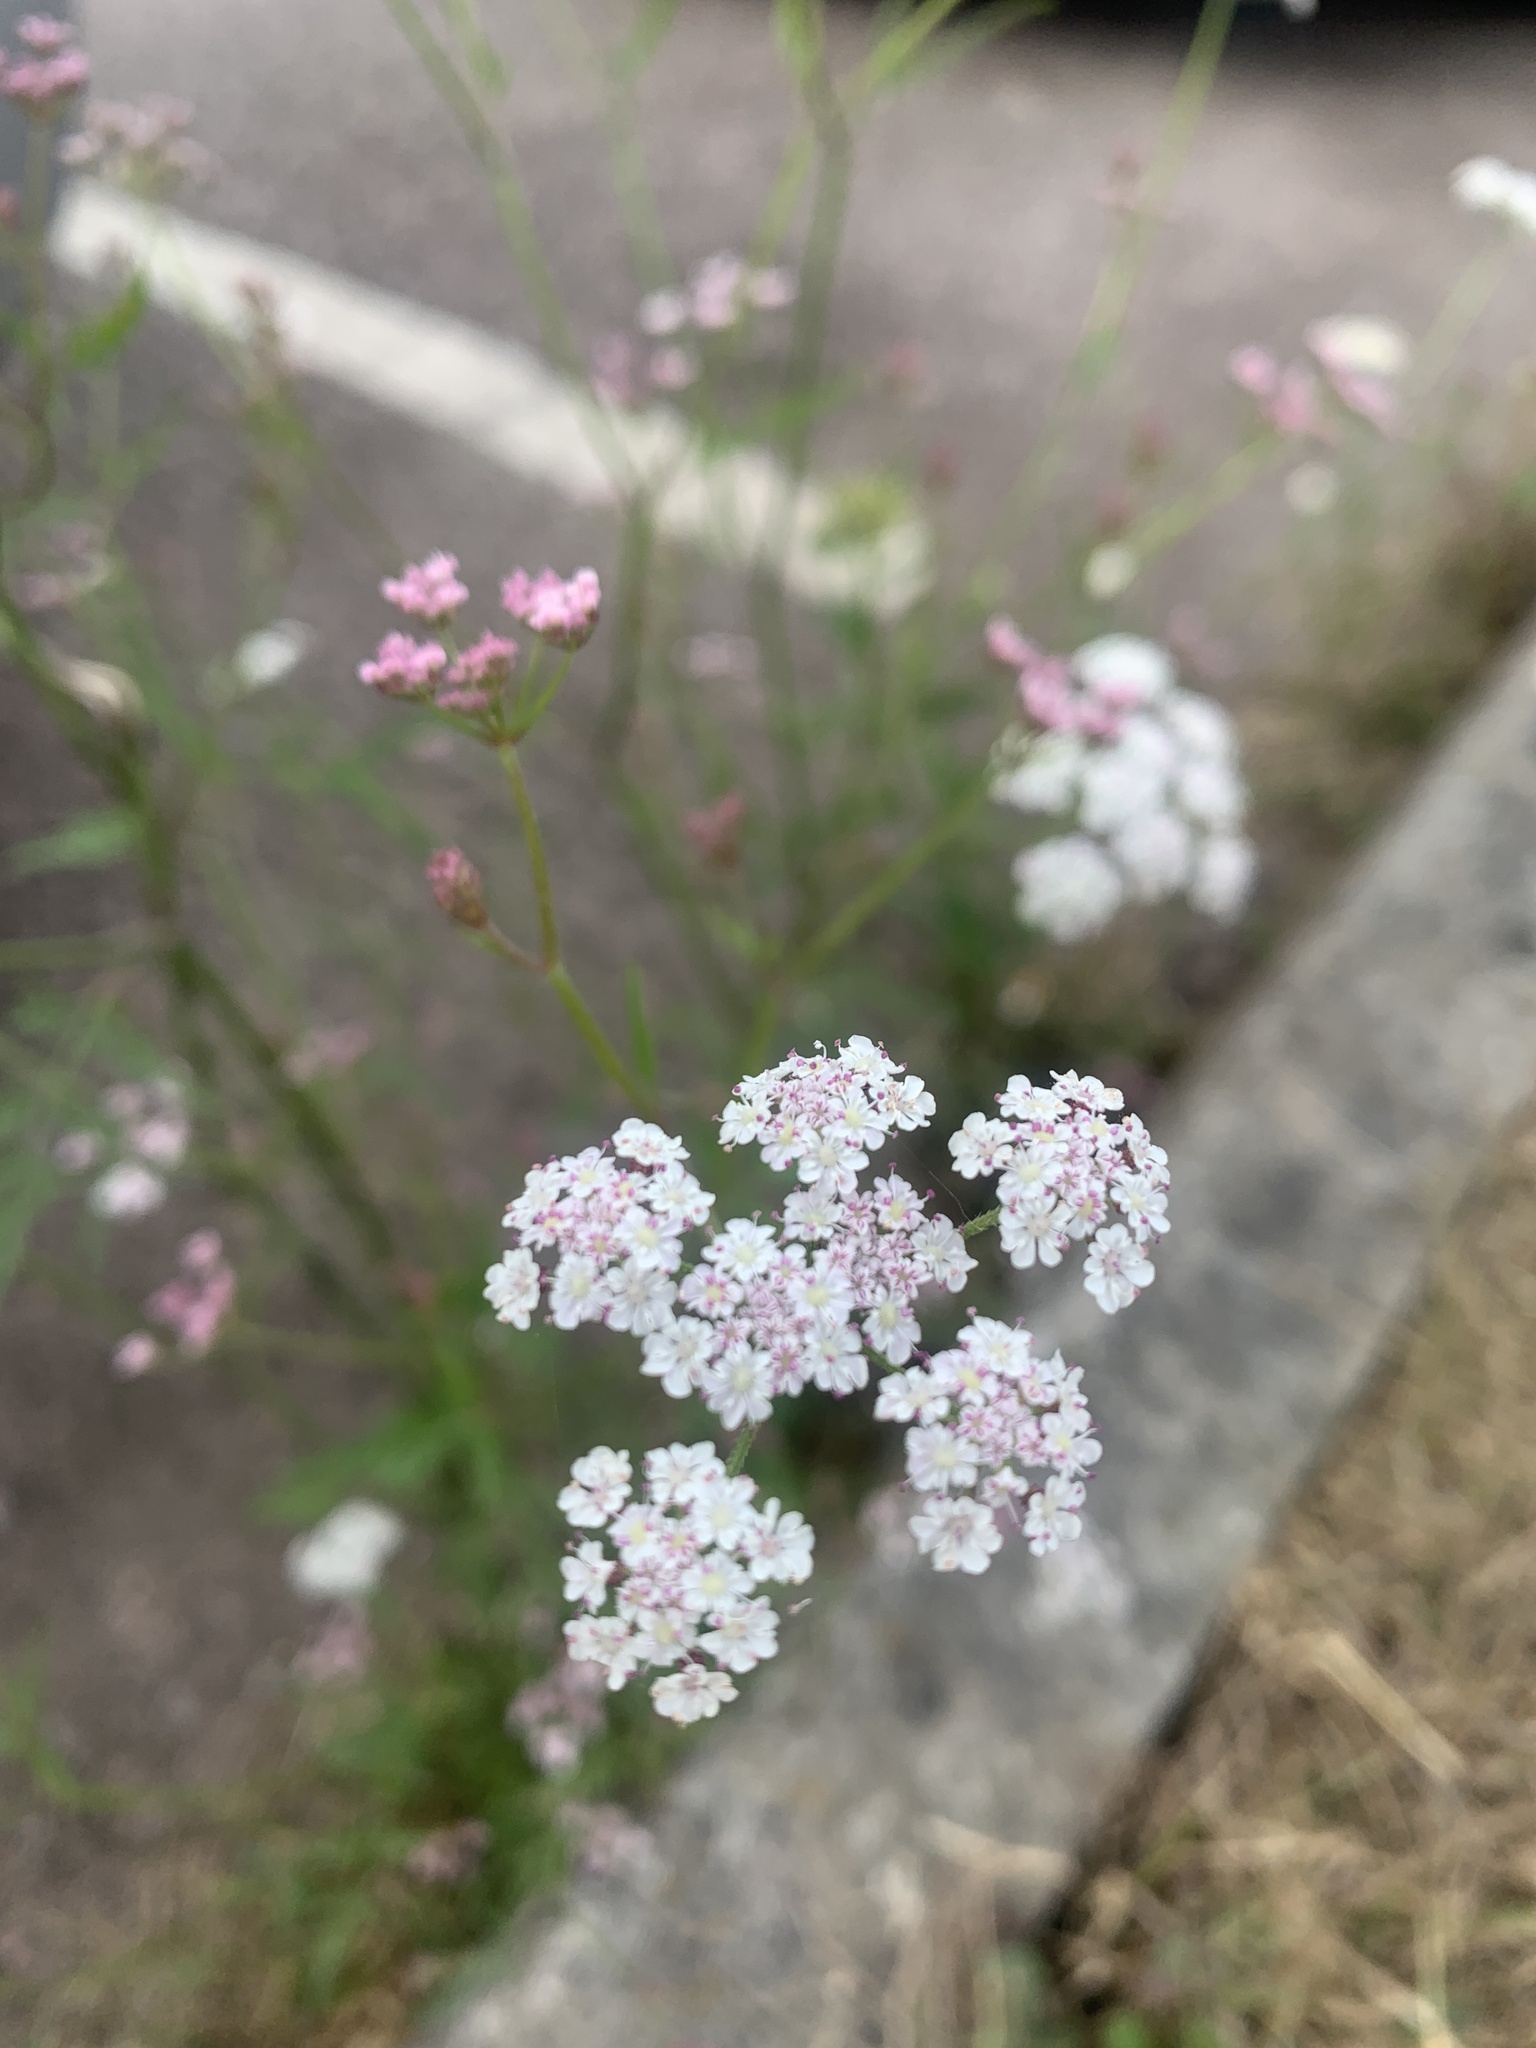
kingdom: Plantae
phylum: Tracheophyta
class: Magnoliopsida
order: Apiales
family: Apiaceae
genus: Torilis
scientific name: Torilis japonica
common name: Upright hedge-parsley
